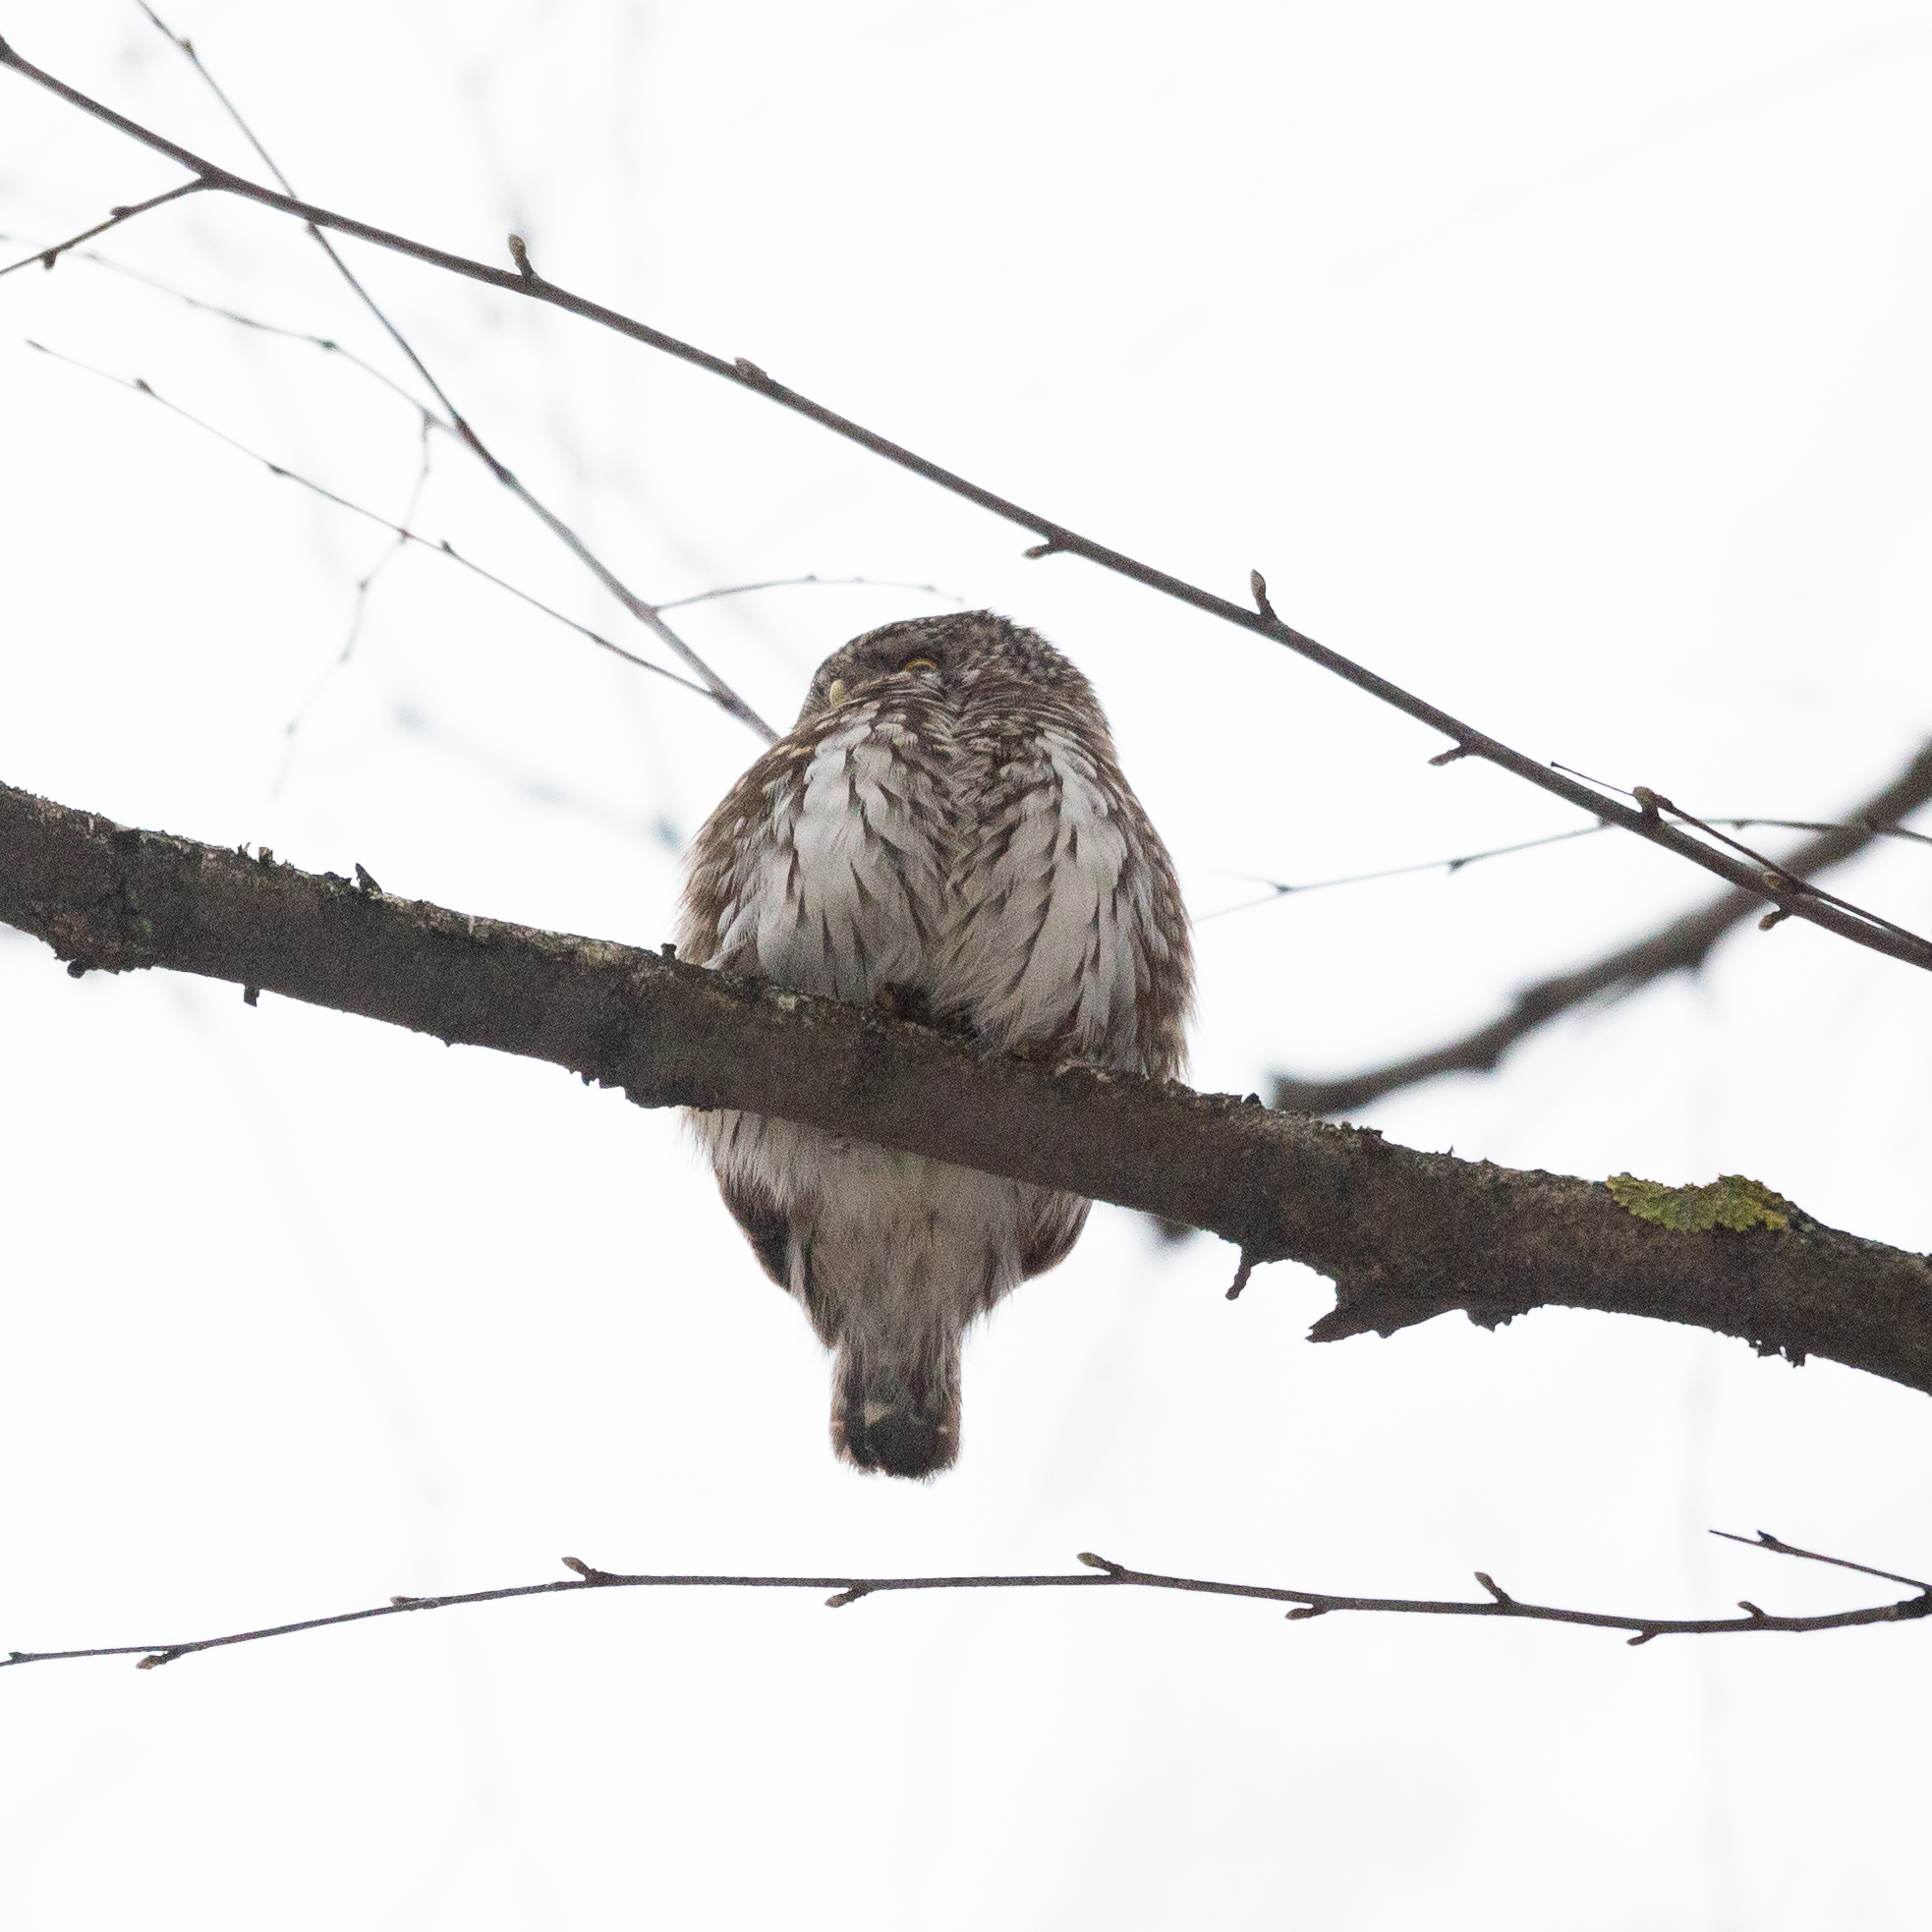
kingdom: Animalia
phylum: Chordata
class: Aves
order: Strigiformes
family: Strigidae
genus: Glaucidium
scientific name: Glaucidium passerinum
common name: Eurasian pygmy owl
